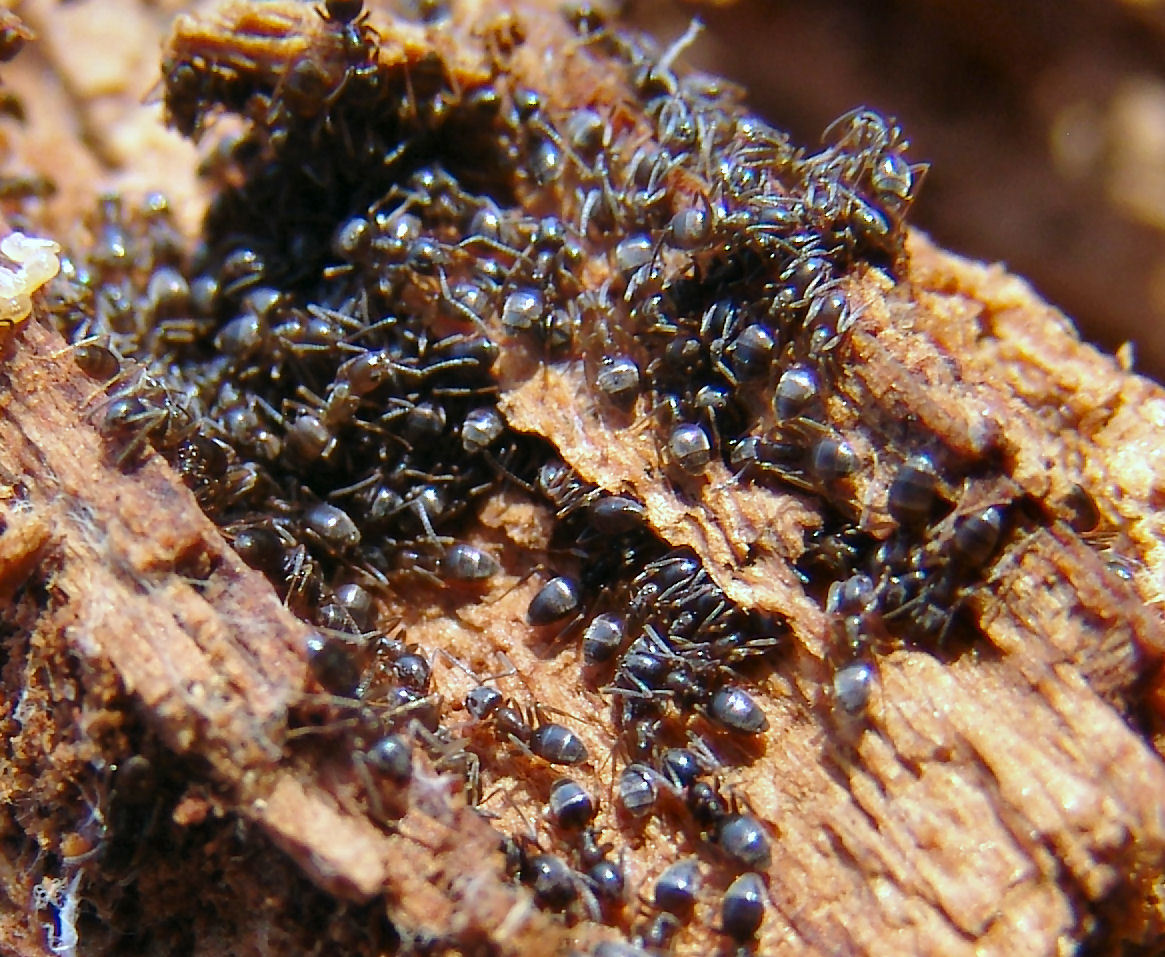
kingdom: Animalia
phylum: Arthropoda
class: Insecta
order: Hymenoptera
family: Formicidae
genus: Tapinoma
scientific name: Tapinoma sessile
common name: Odorous house ant
